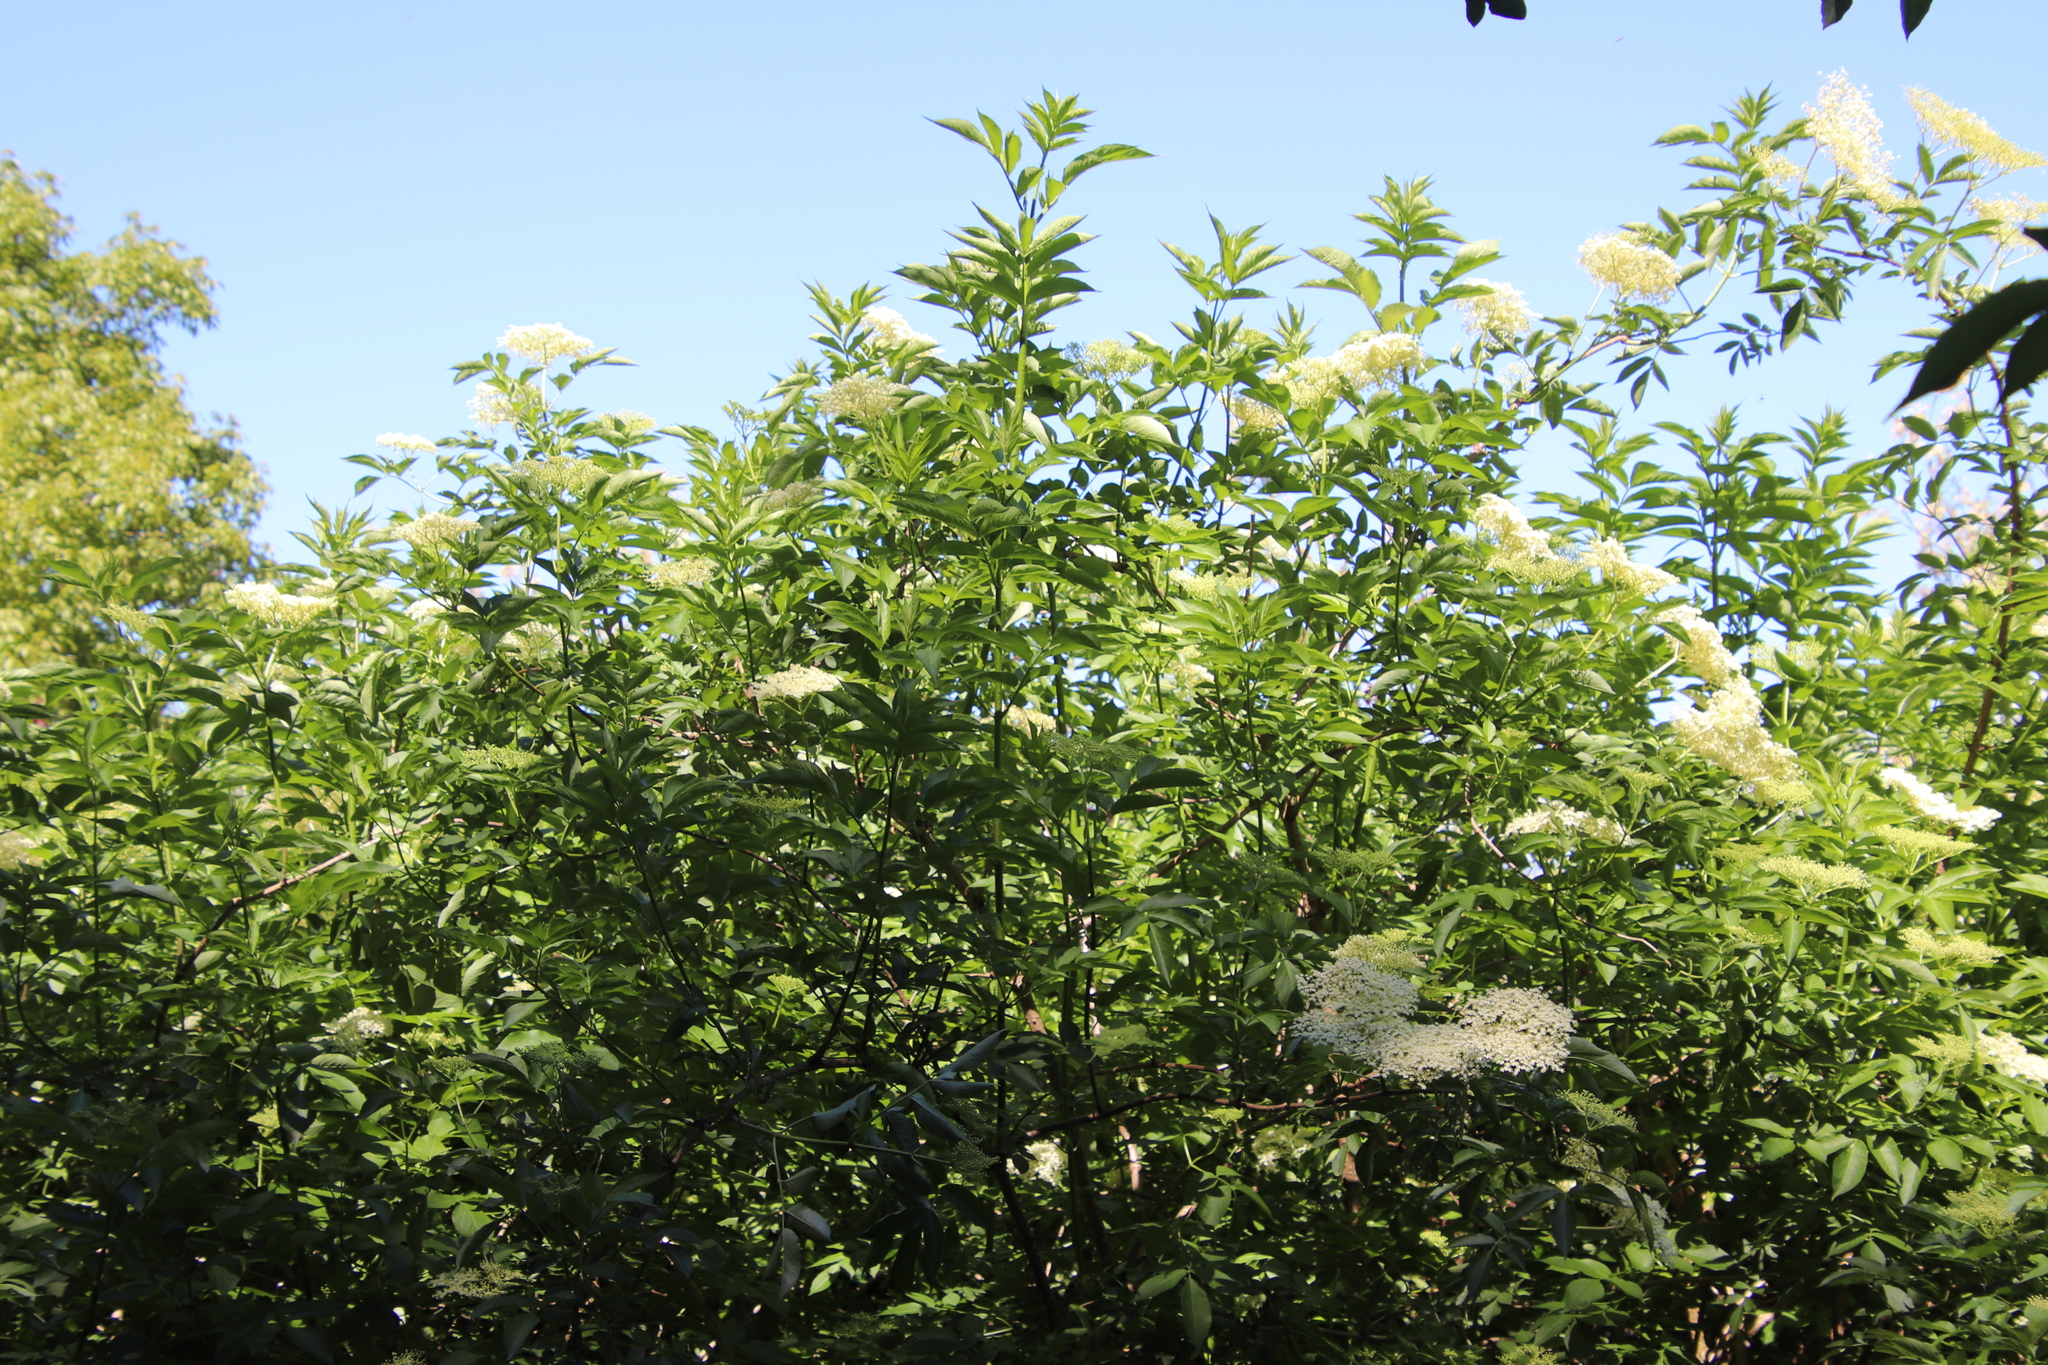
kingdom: Plantae
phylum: Tracheophyta
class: Magnoliopsida
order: Dipsacales
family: Viburnaceae
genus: Sambucus
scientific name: Sambucus nigra
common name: Elder
